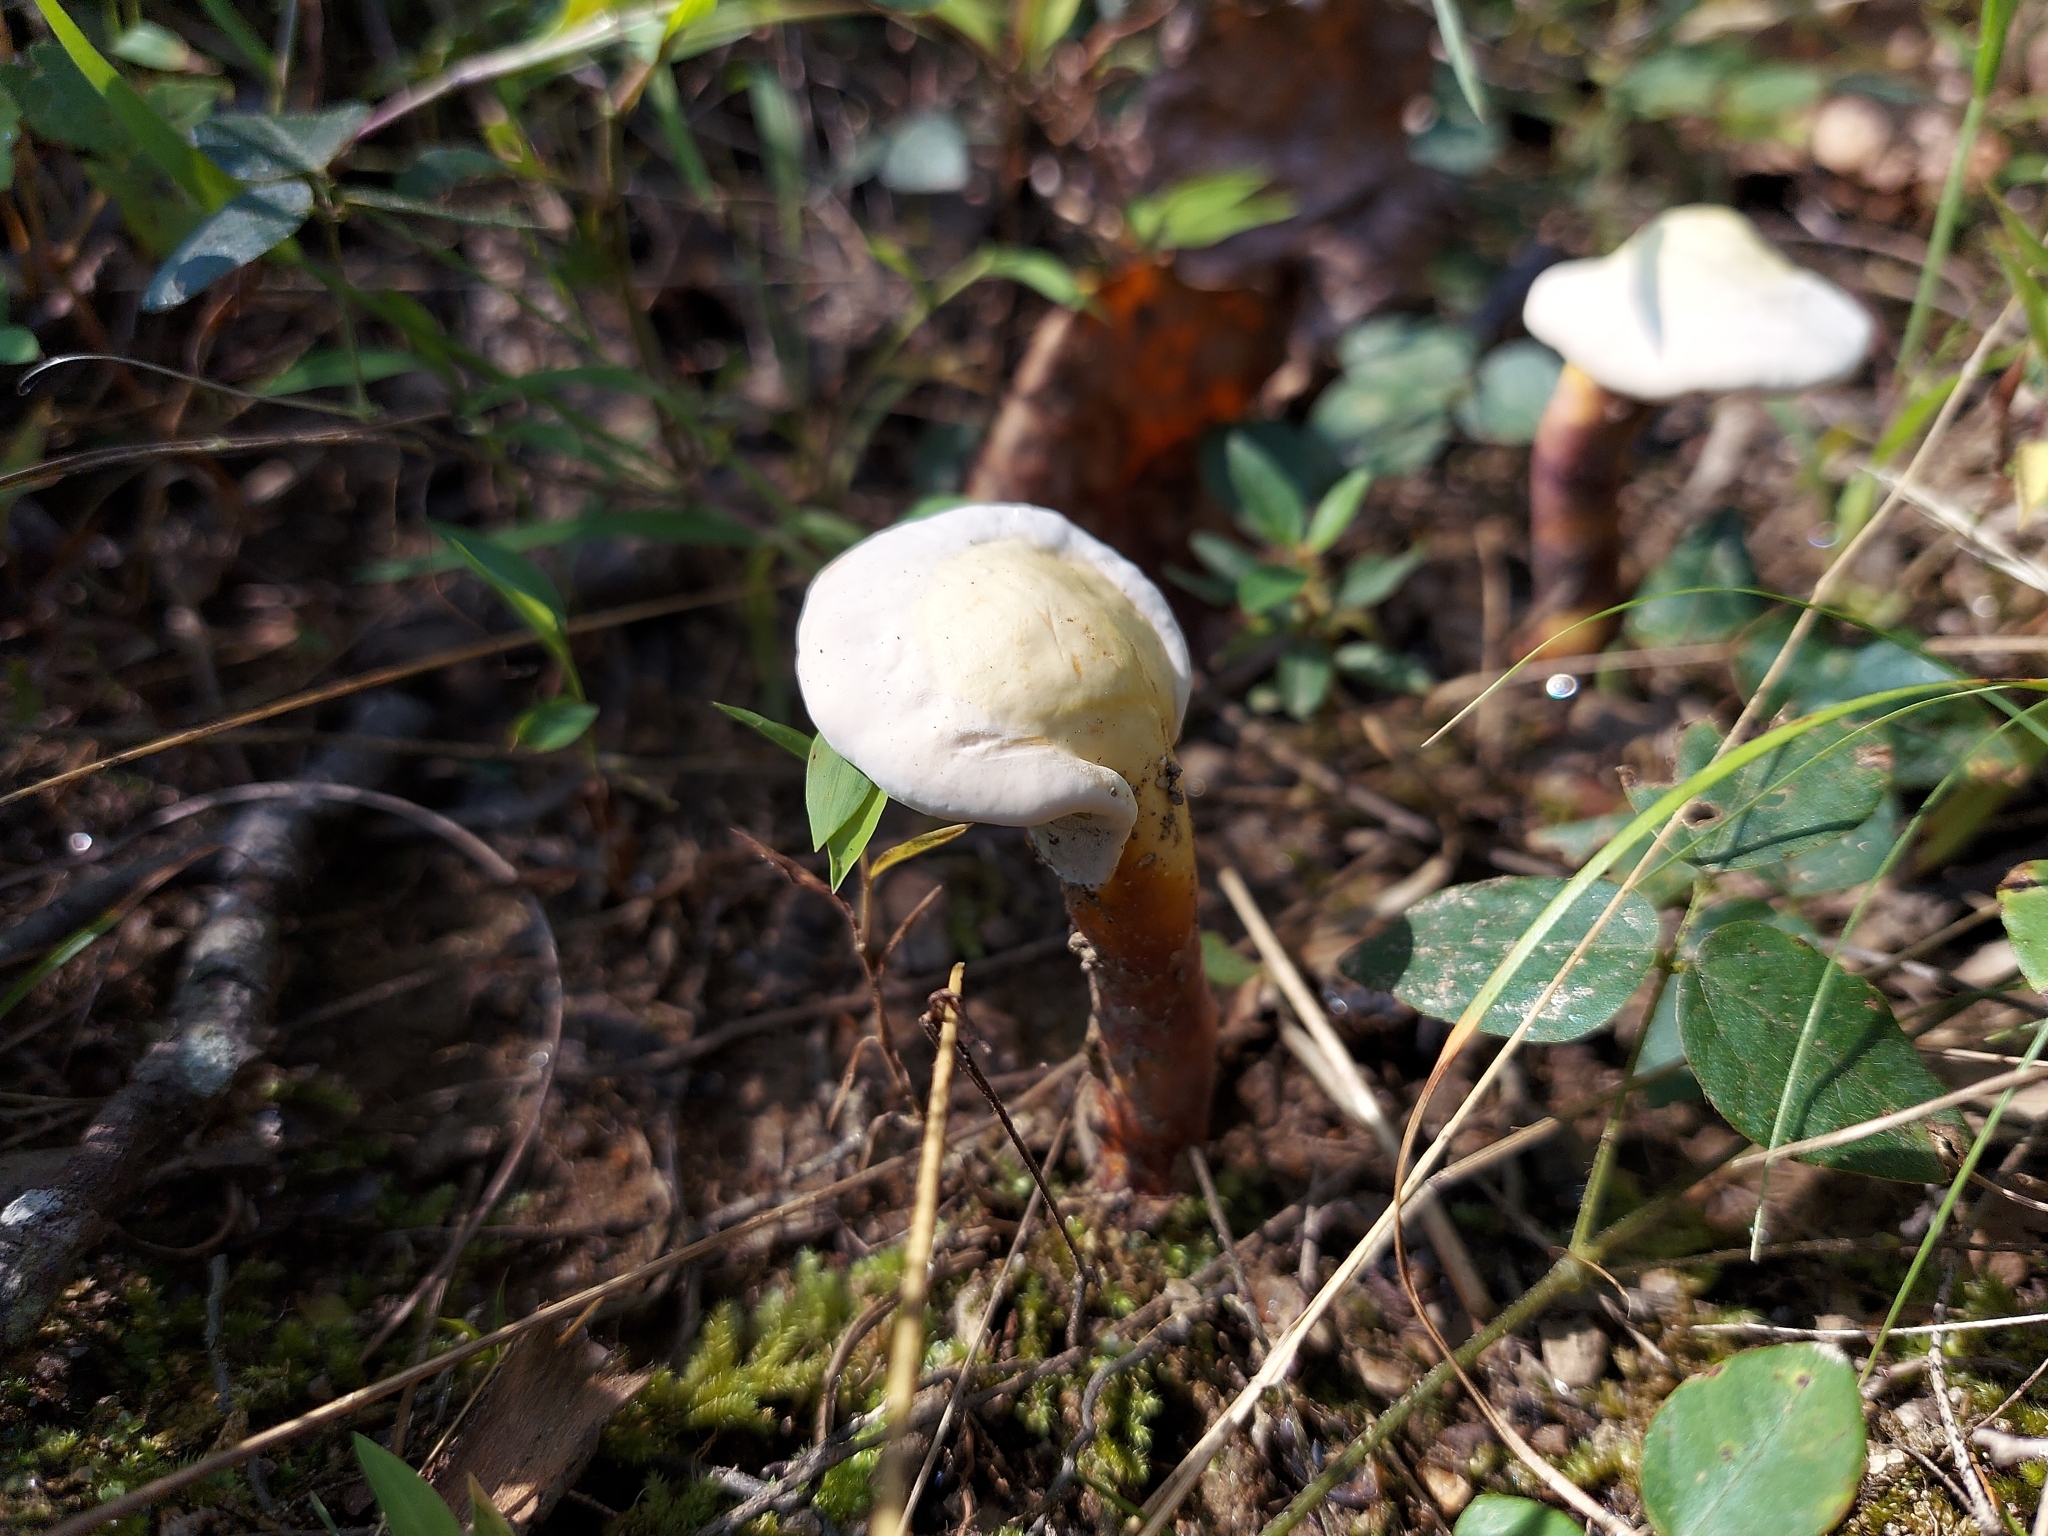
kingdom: Fungi
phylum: Basidiomycota
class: Agaricomycetes
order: Polyporales
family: Polyporaceae
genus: Ganoderma
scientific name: Ganoderma curtisii
